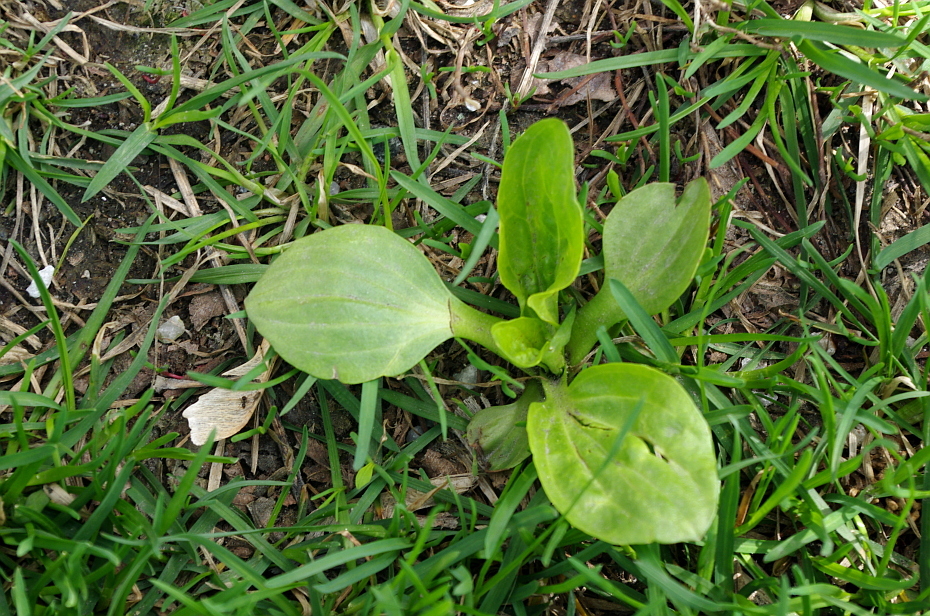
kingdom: Plantae
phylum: Tracheophyta
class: Magnoliopsida
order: Lamiales
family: Plantaginaceae
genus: Plantago
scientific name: Plantago major
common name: Common plantain
